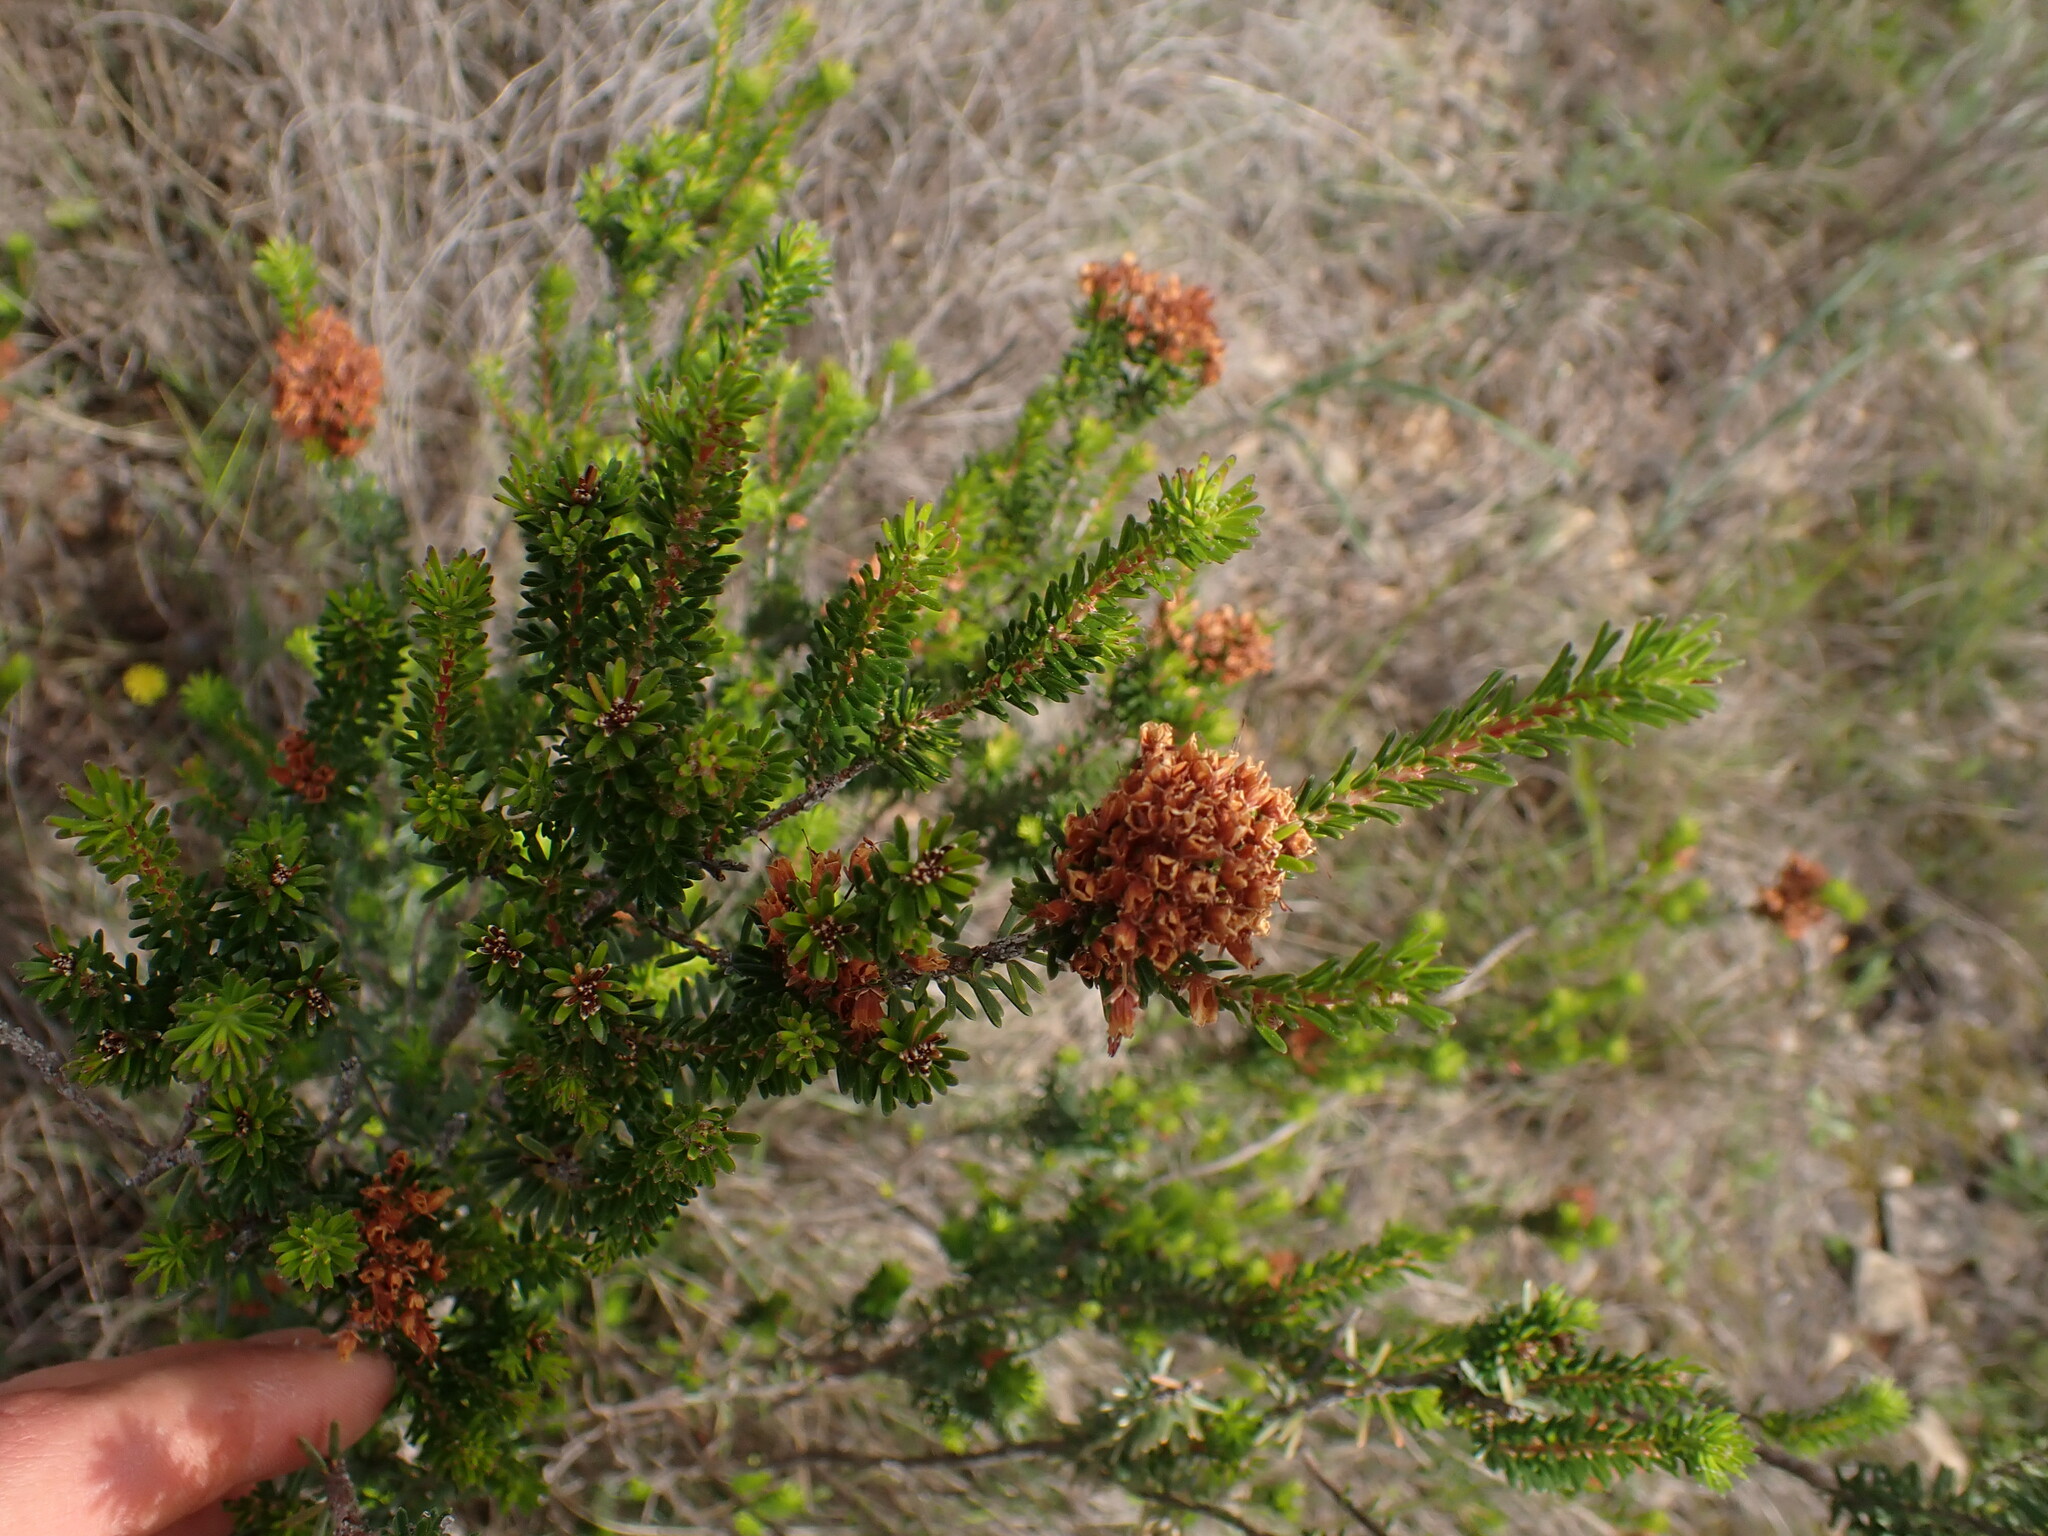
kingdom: Plantae
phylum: Tracheophyta
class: Magnoliopsida
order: Ericales
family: Ericaceae
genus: Erica
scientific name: Erica multiflora
